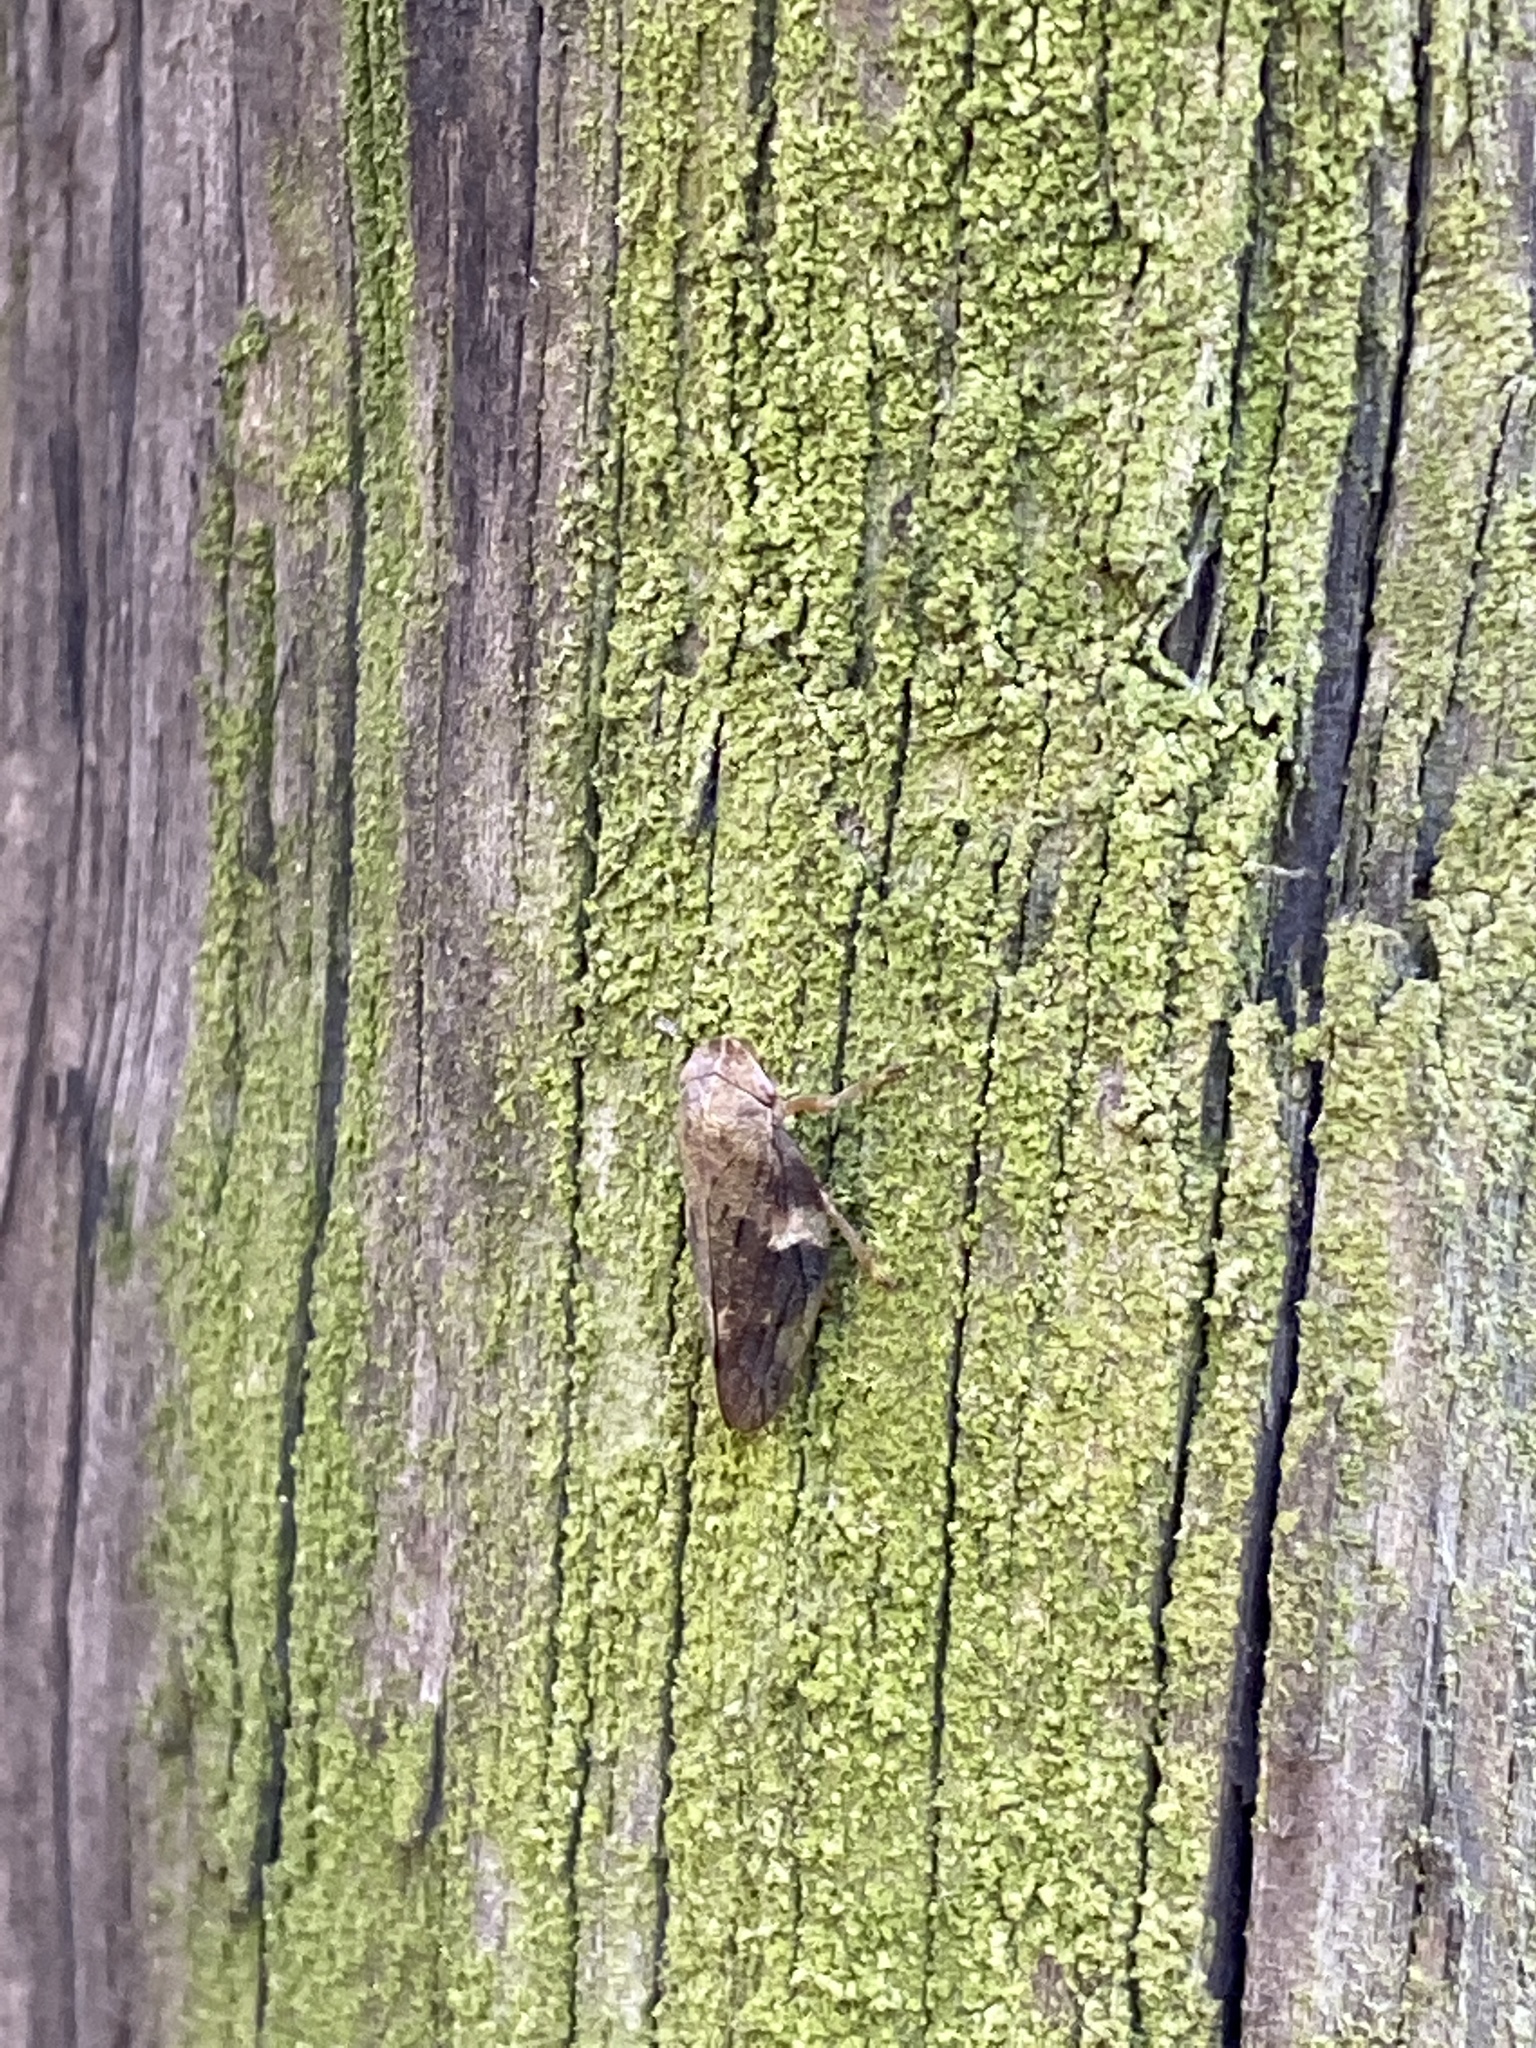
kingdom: Animalia
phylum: Arthropoda
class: Insecta
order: Hemiptera
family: Aphrophoridae
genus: Aphrophora
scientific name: Aphrophora alni
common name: European alder spittlebug
